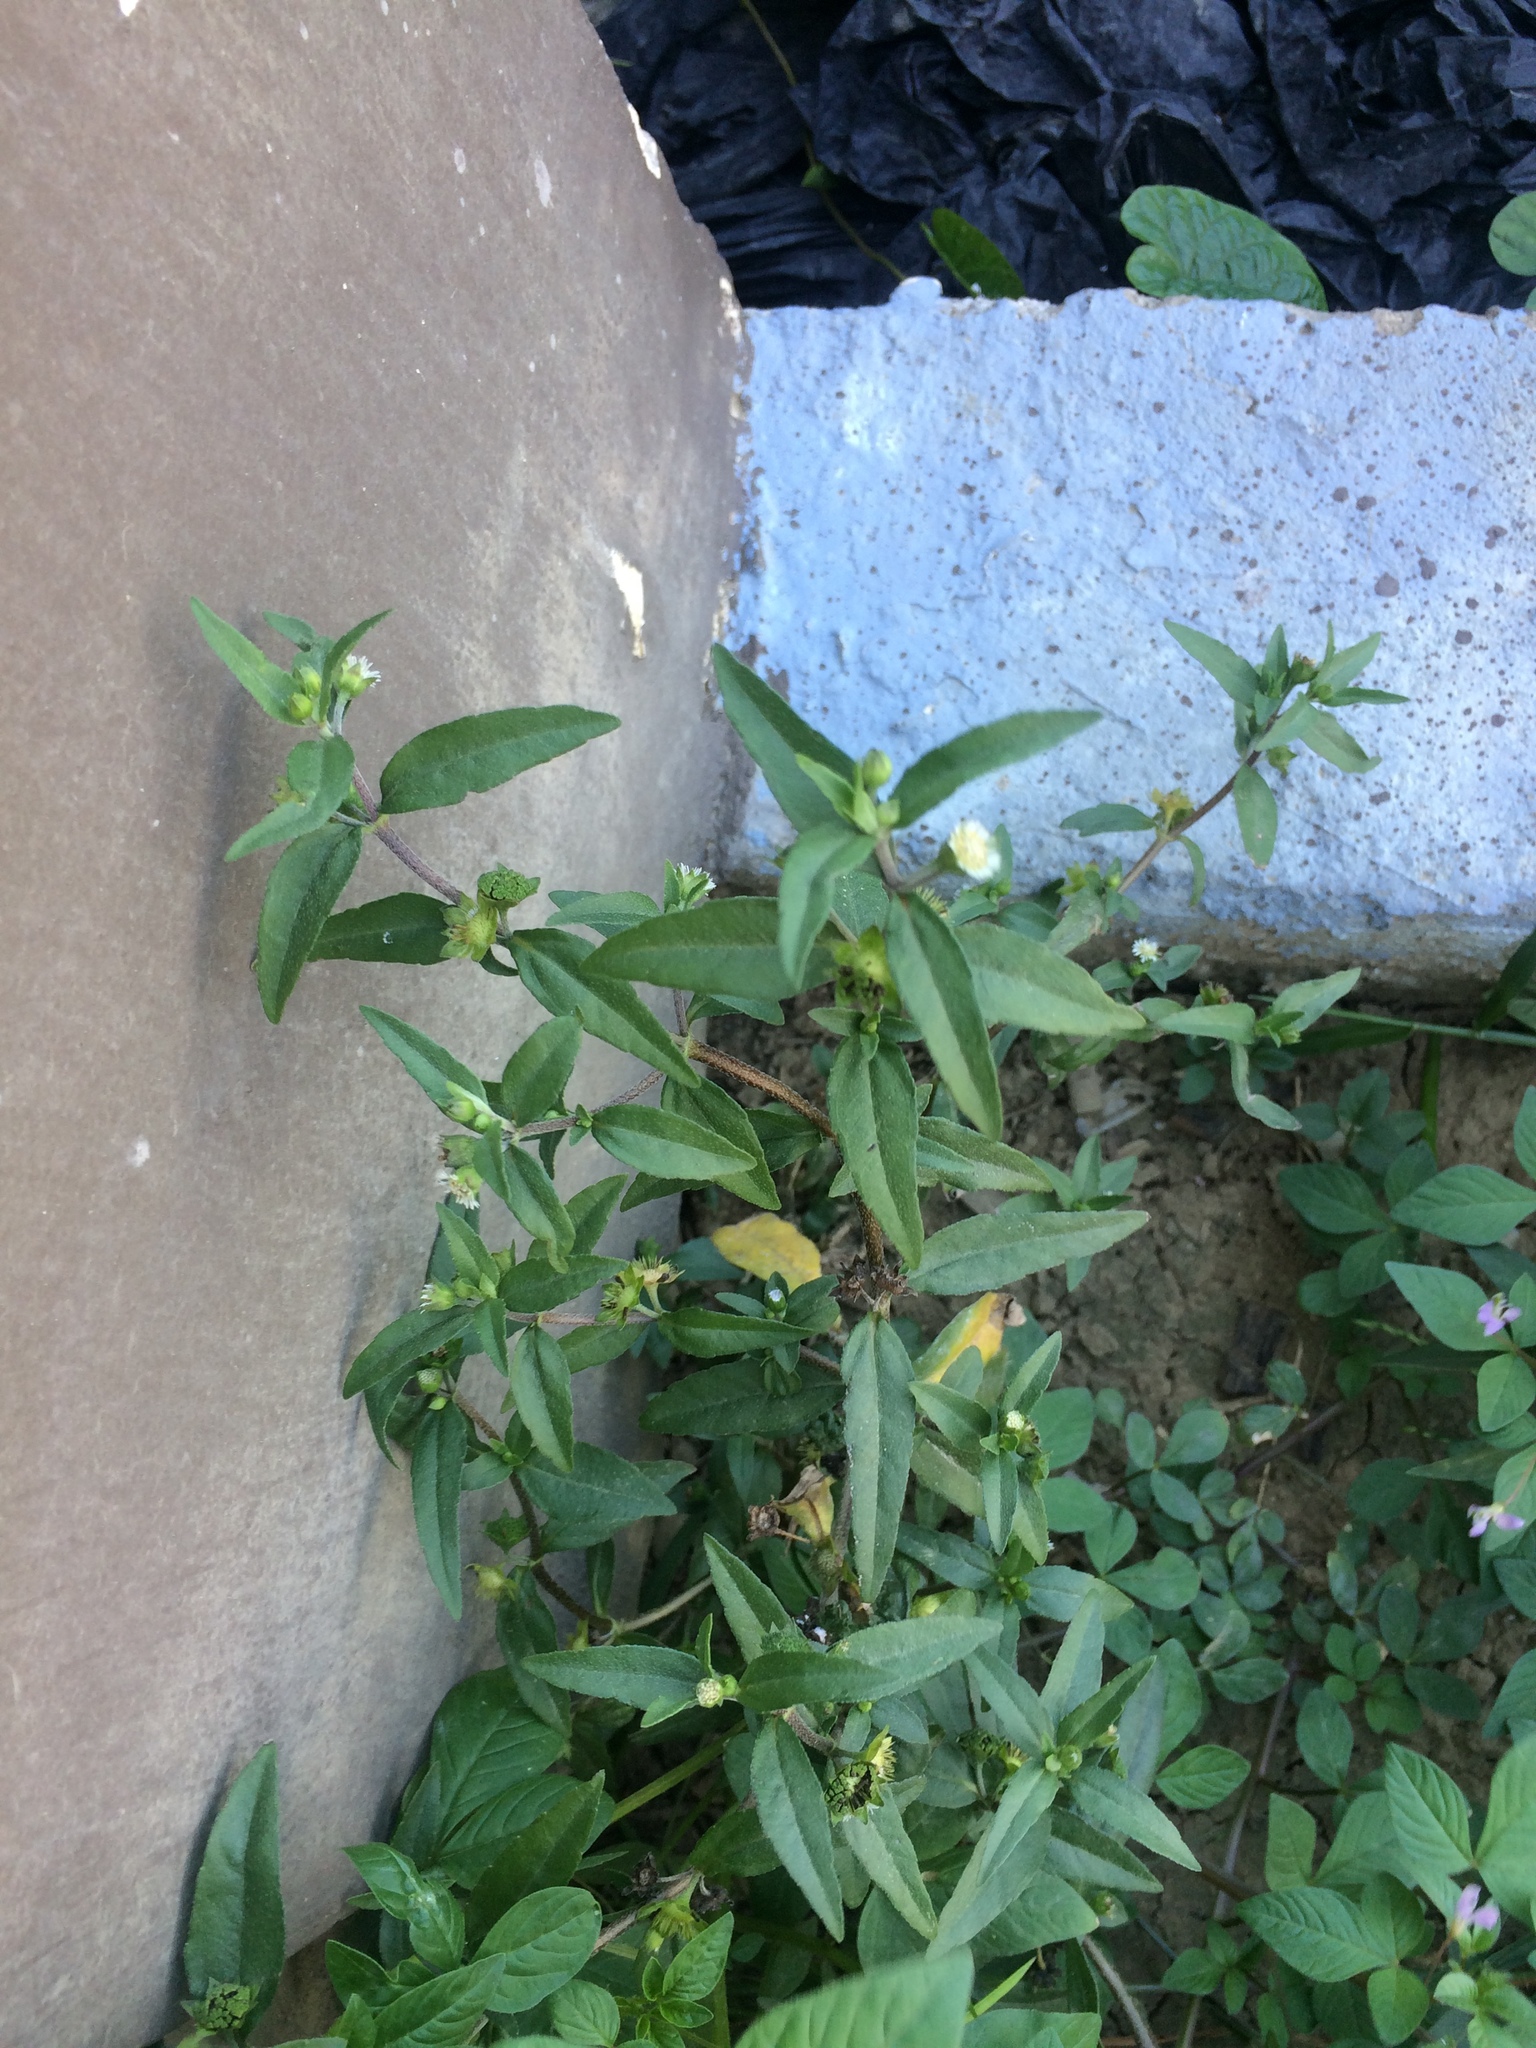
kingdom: Plantae
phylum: Tracheophyta
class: Magnoliopsida
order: Asterales
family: Asteraceae
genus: Eclipta
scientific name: Eclipta prostrata
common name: False daisy
